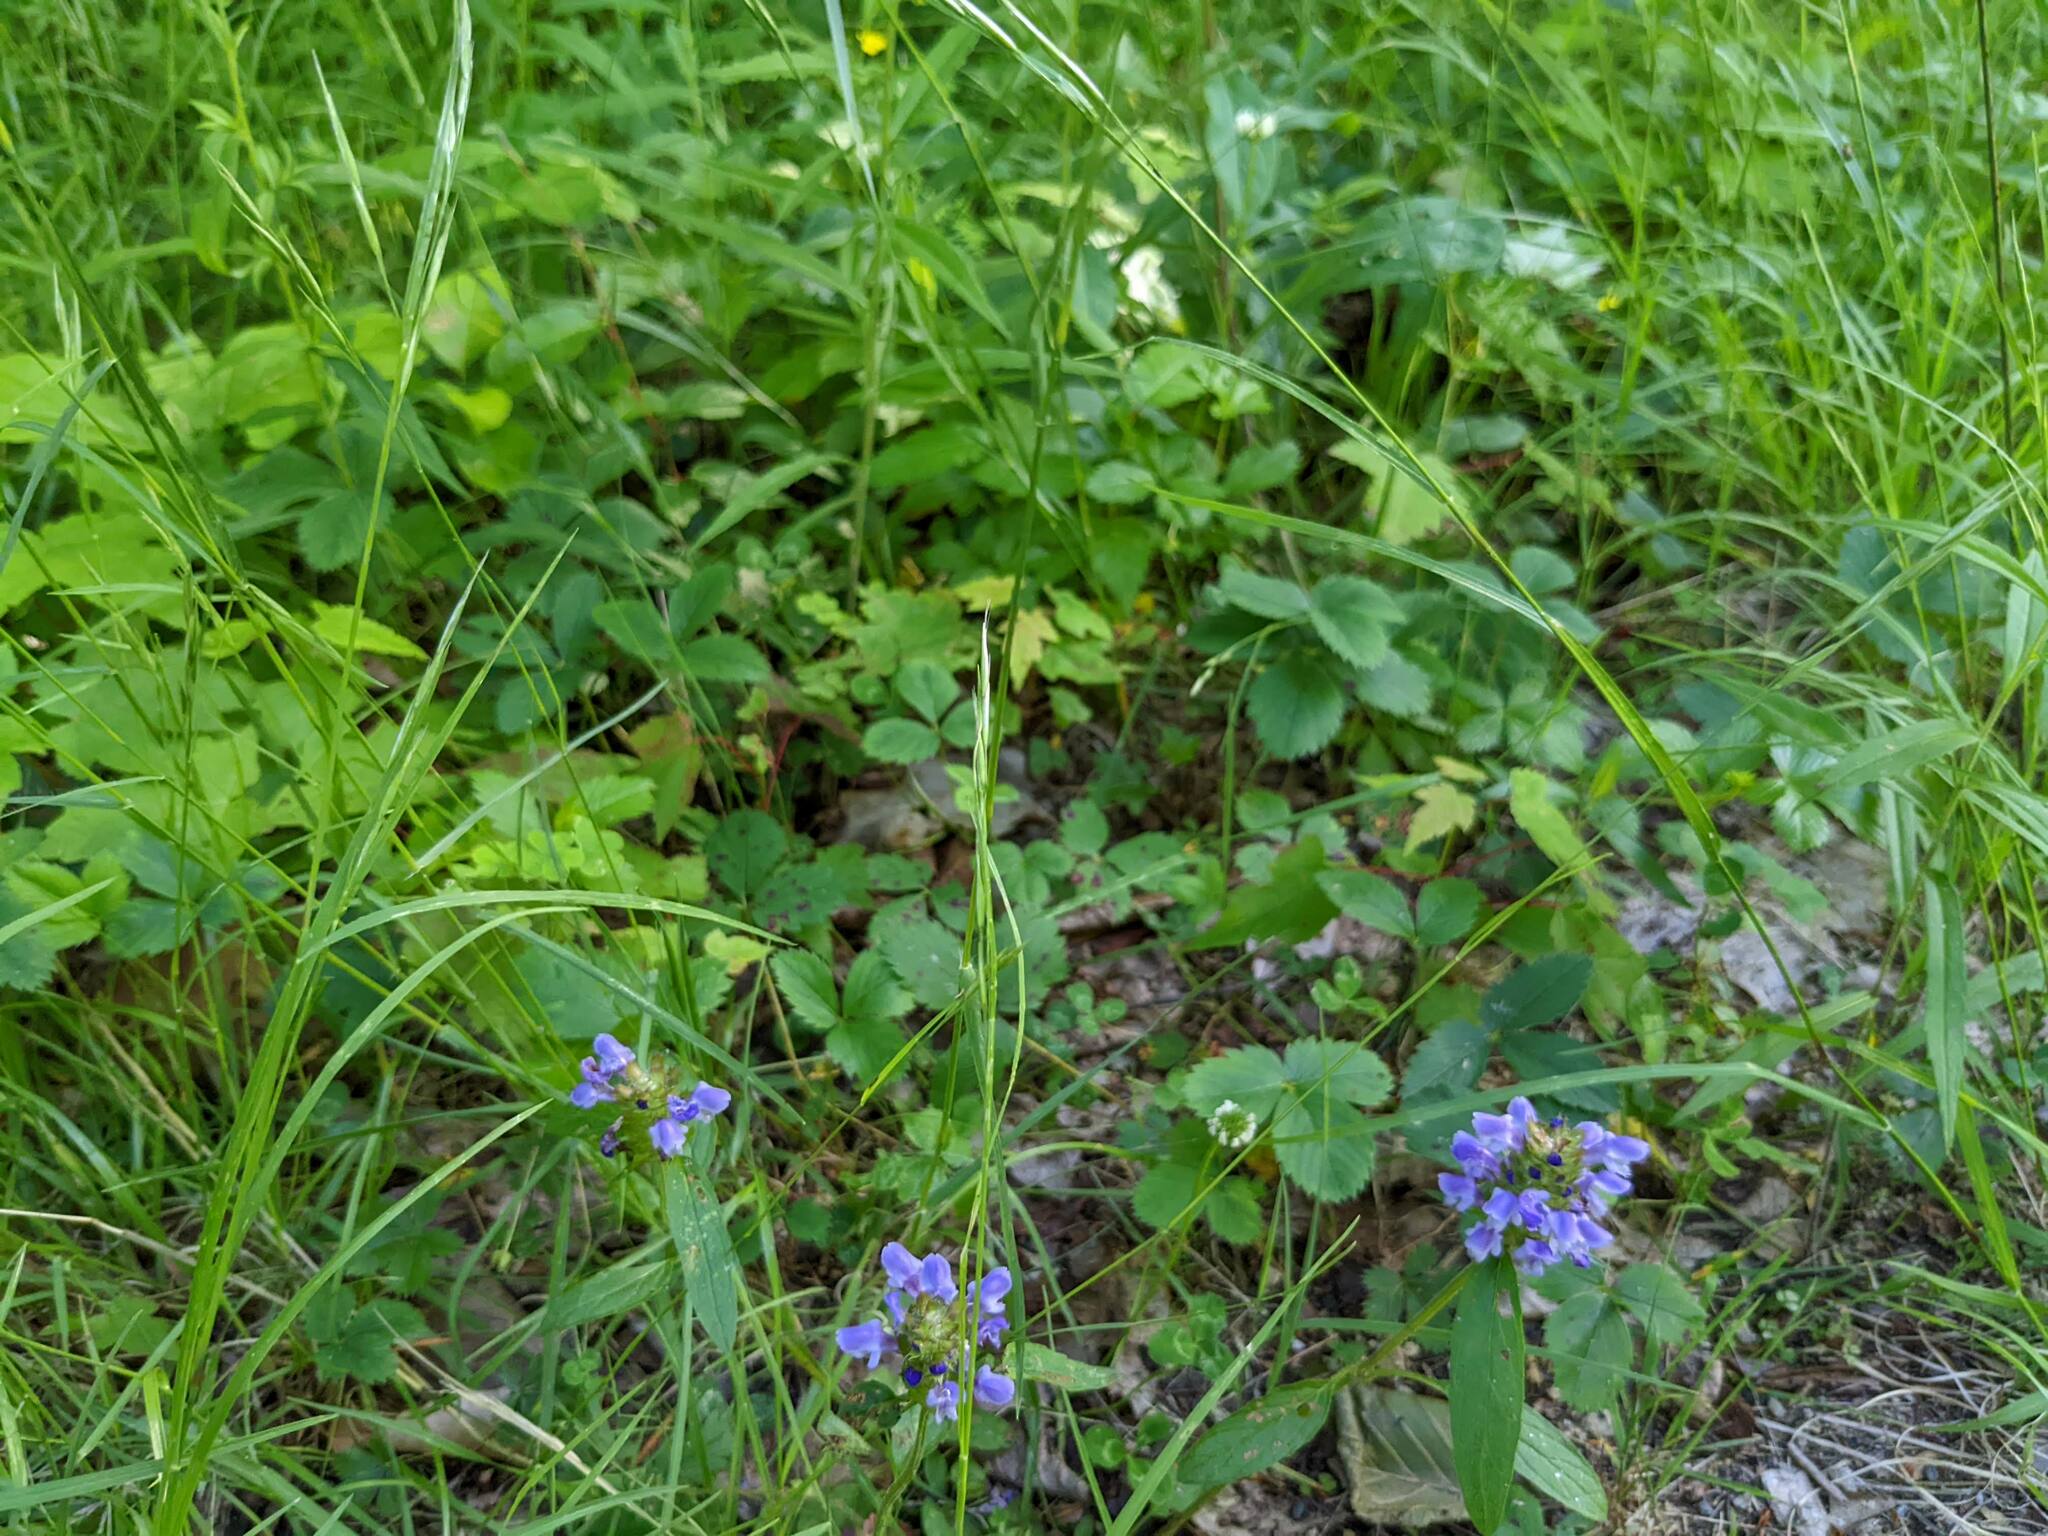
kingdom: Plantae
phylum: Tracheophyta
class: Magnoliopsida
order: Lamiales
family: Lamiaceae
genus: Prunella
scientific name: Prunella vulgaris
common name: Heal-all
